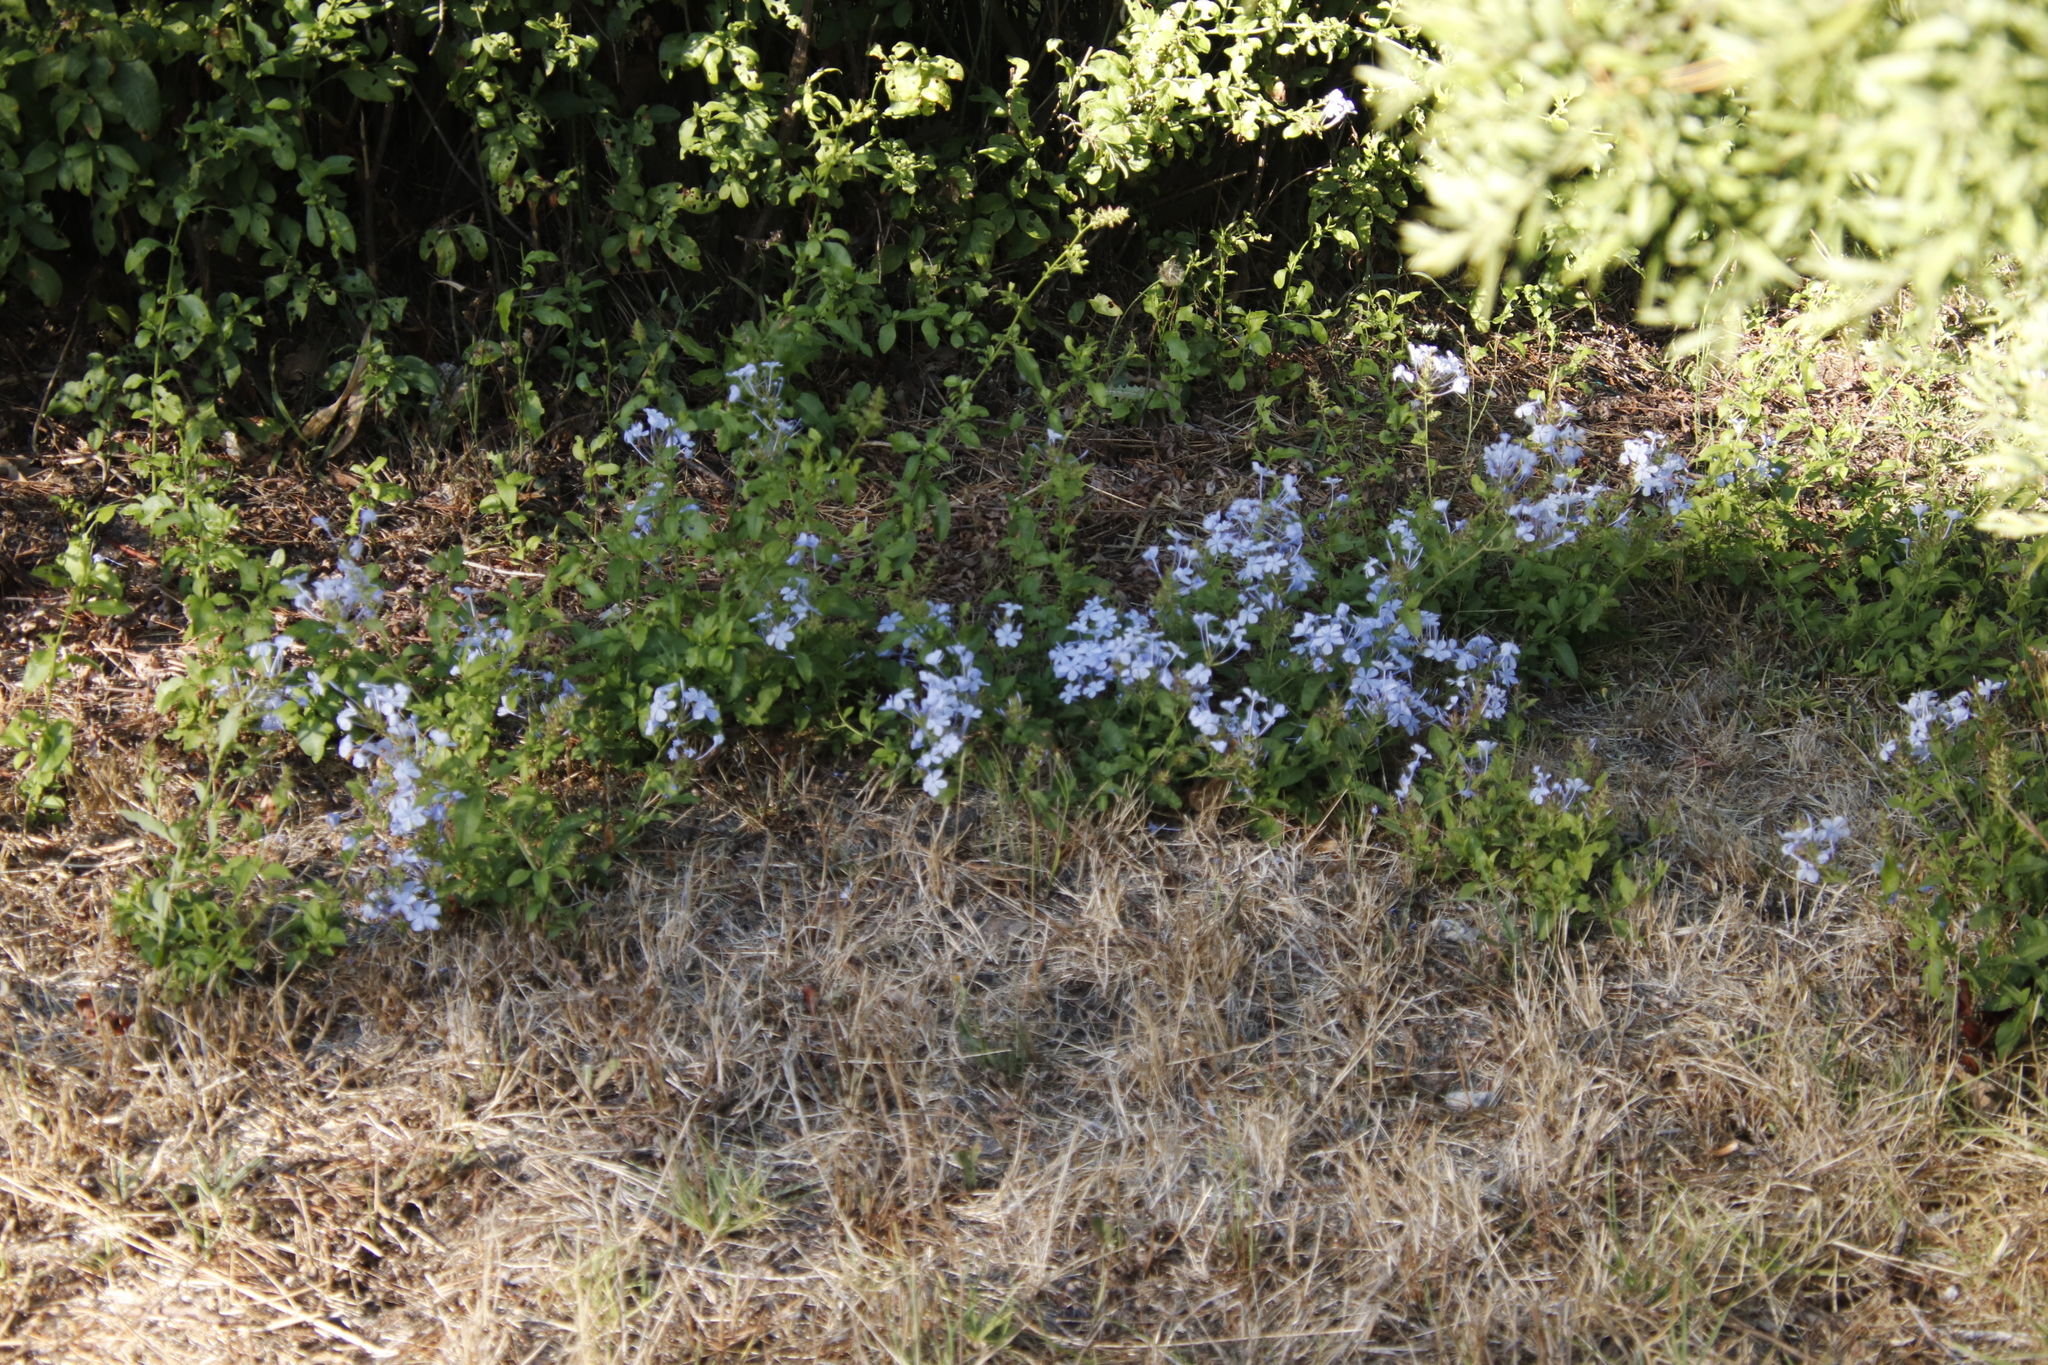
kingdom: Plantae
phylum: Tracheophyta
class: Magnoliopsida
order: Caryophyllales
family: Plumbaginaceae
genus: Plumbago
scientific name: Plumbago auriculata
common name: Cape leadwort
